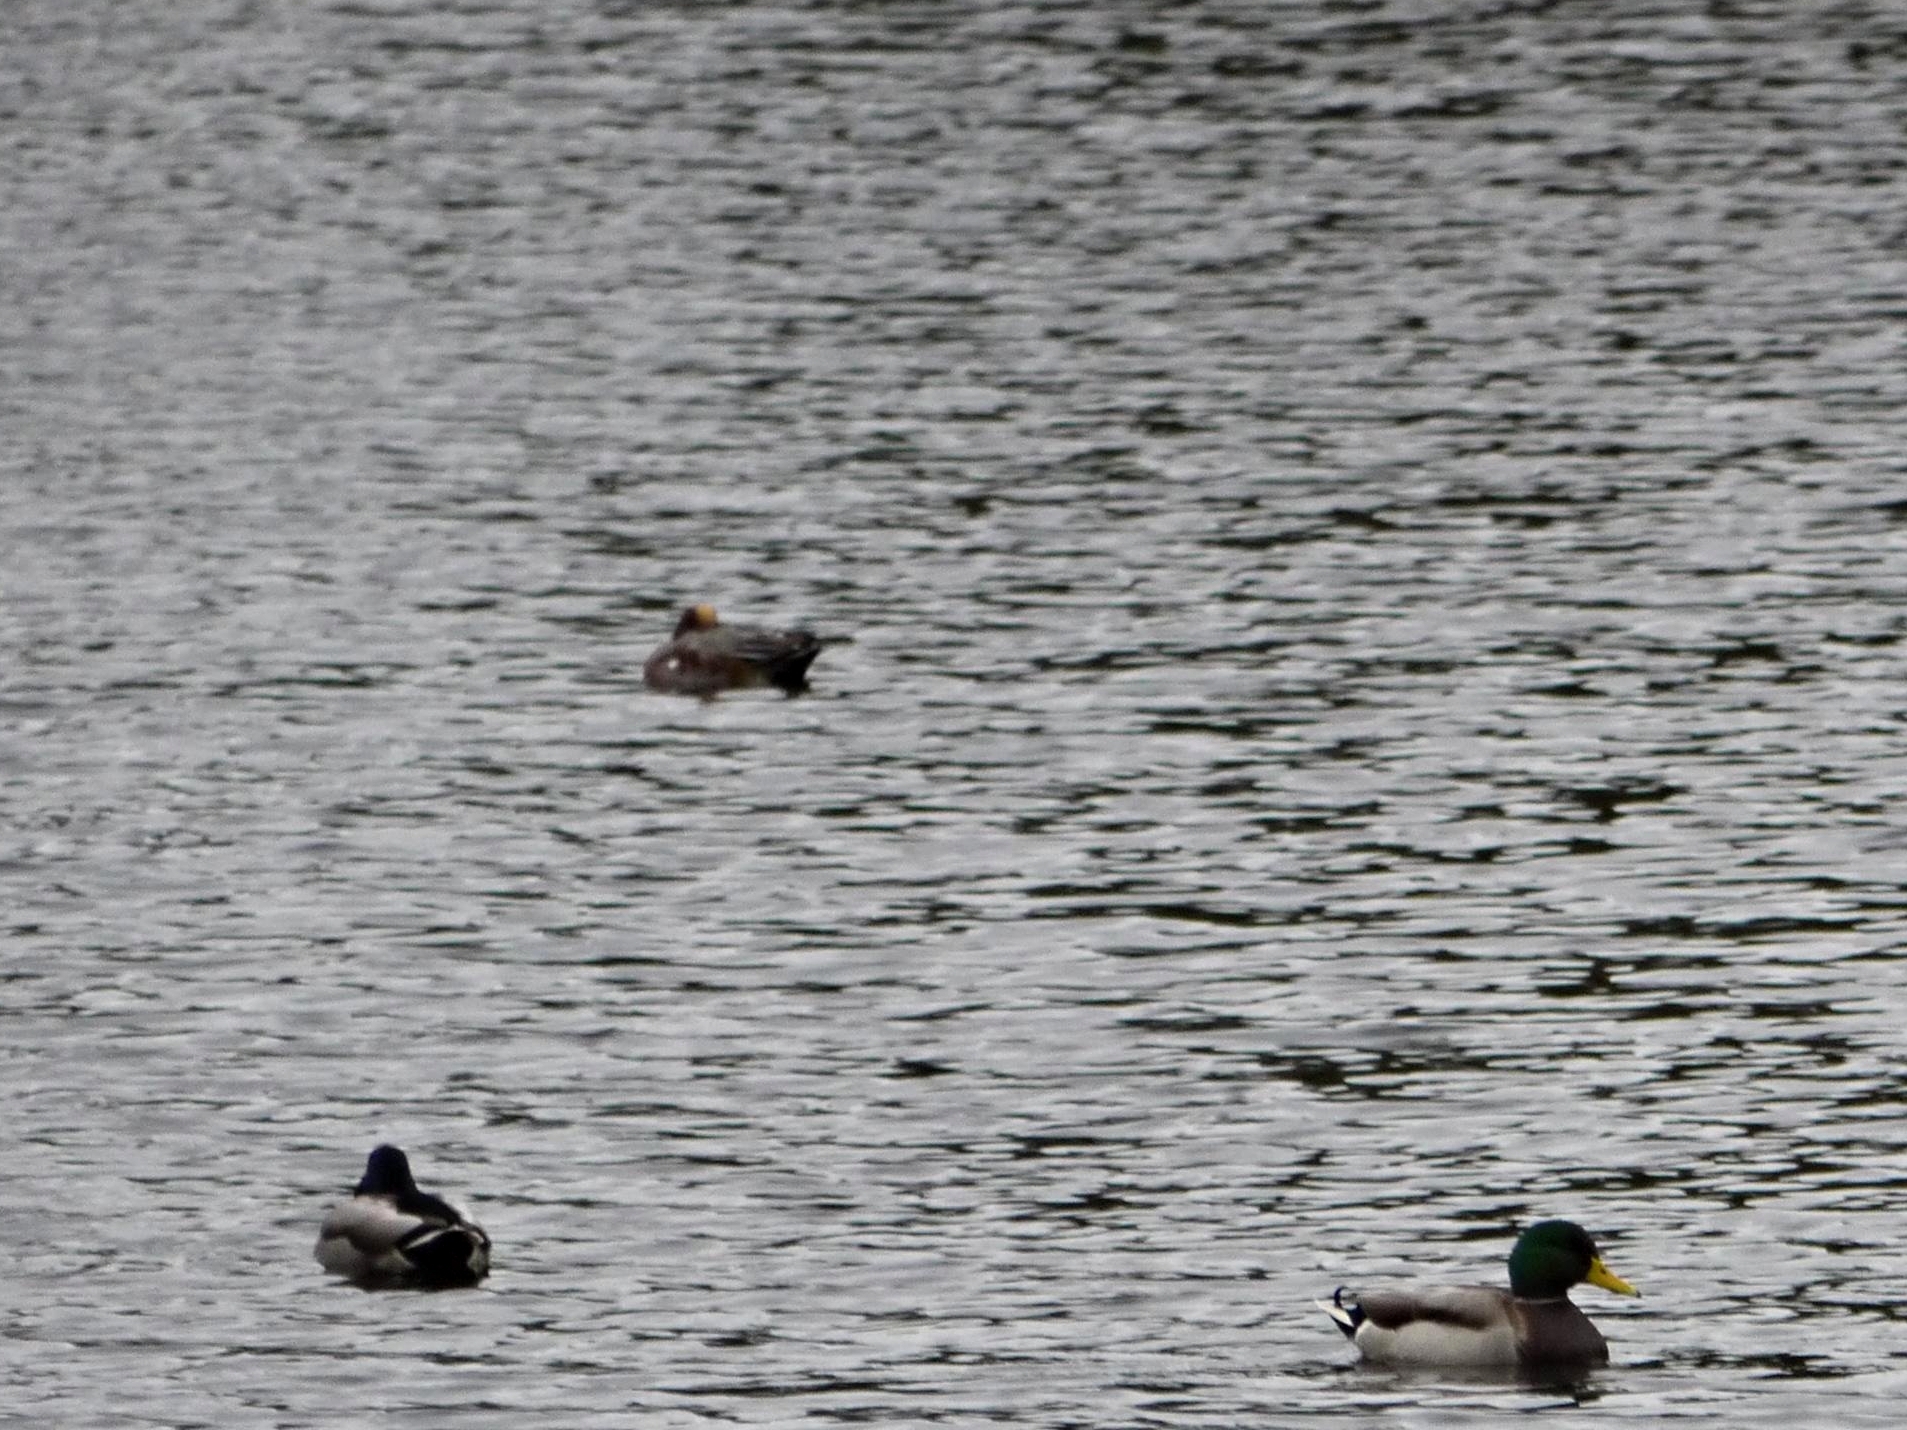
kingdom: Animalia
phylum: Chordata
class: Aves
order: Anseriformes
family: Anatidae
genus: Mareca
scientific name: Mareca penelope
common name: Eurasian wigeon
